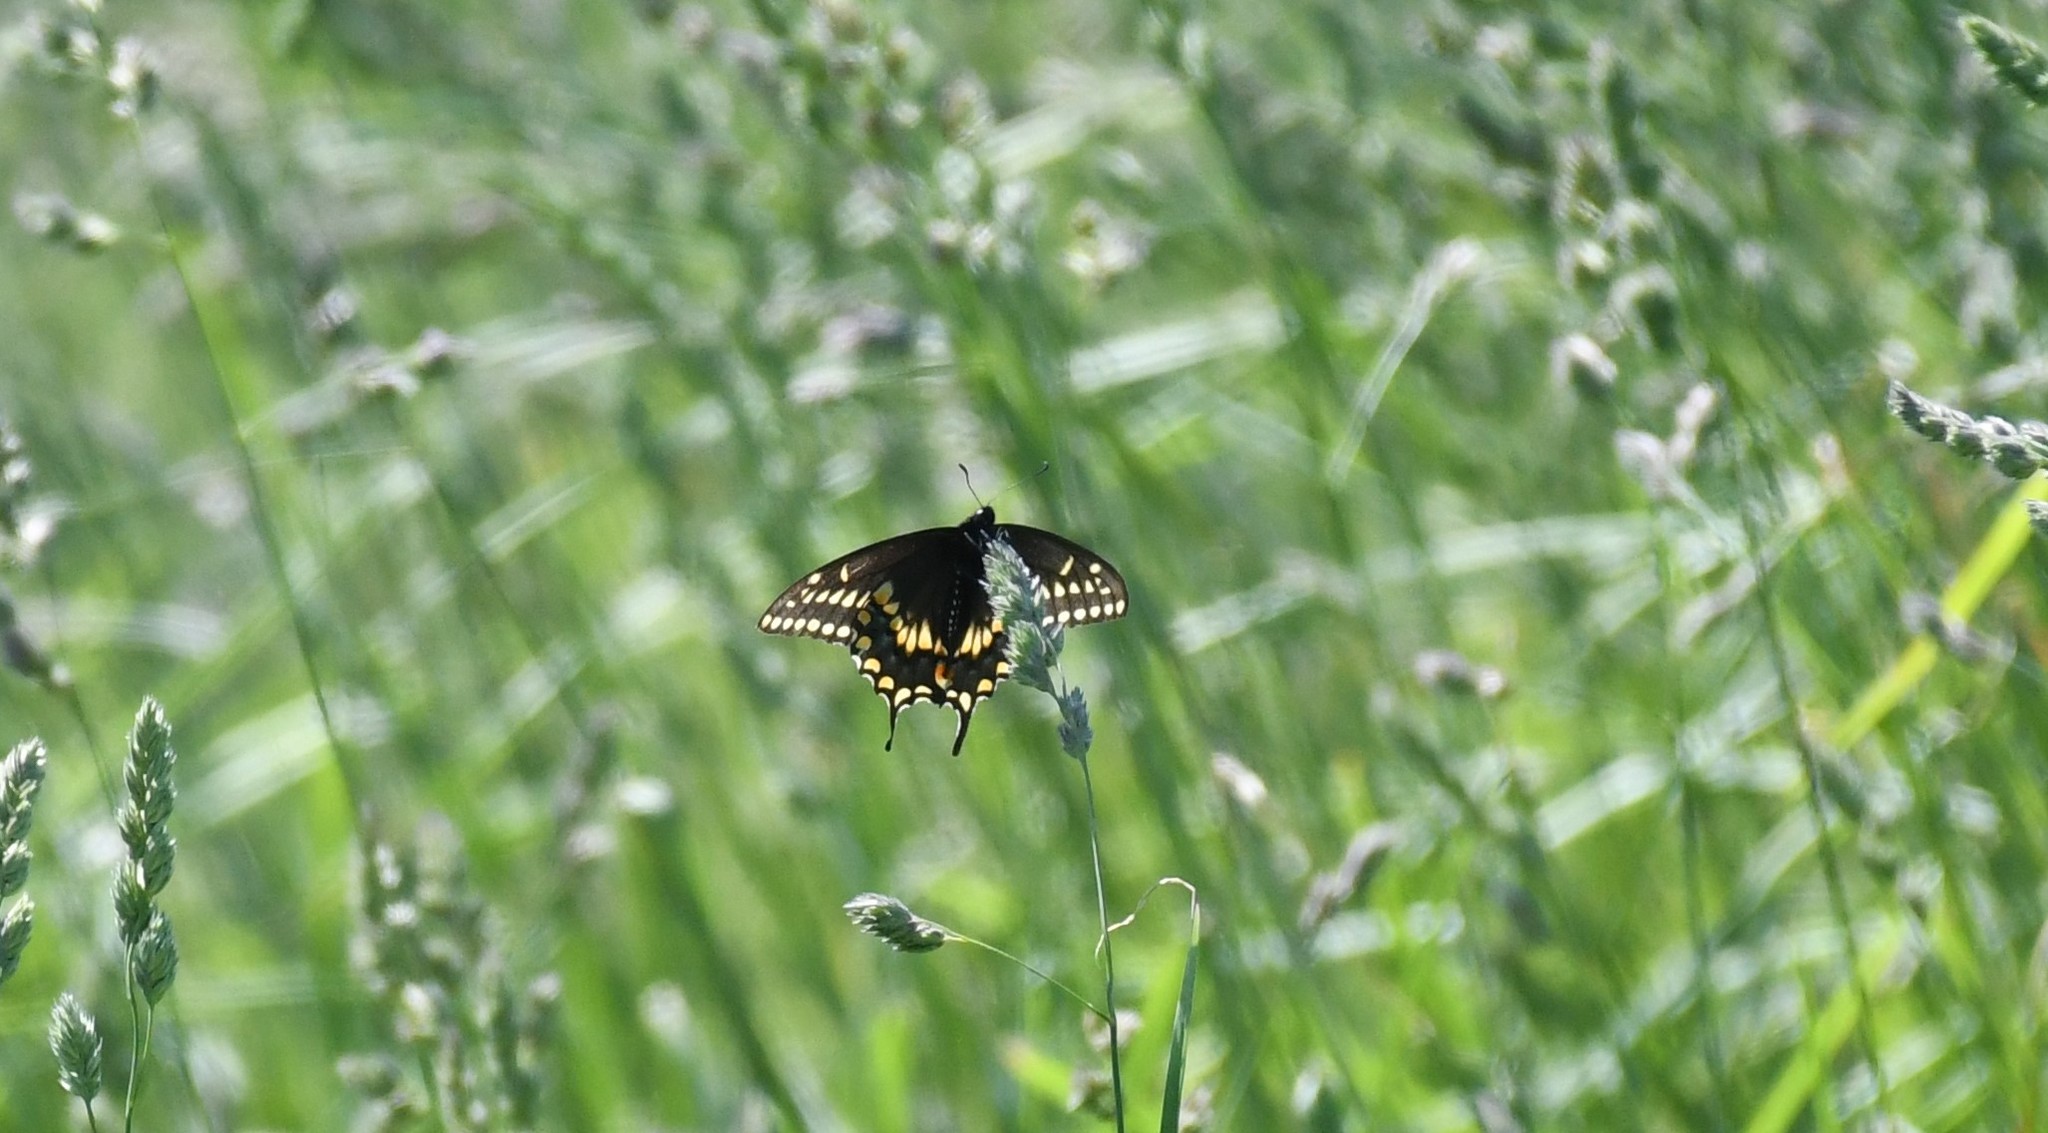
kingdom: Animalia
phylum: Arthropoda
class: Insecta
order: Lepidoptera
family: Papilionidae
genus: Papilio
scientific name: Papilio polyxenes
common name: Black swallowtail
